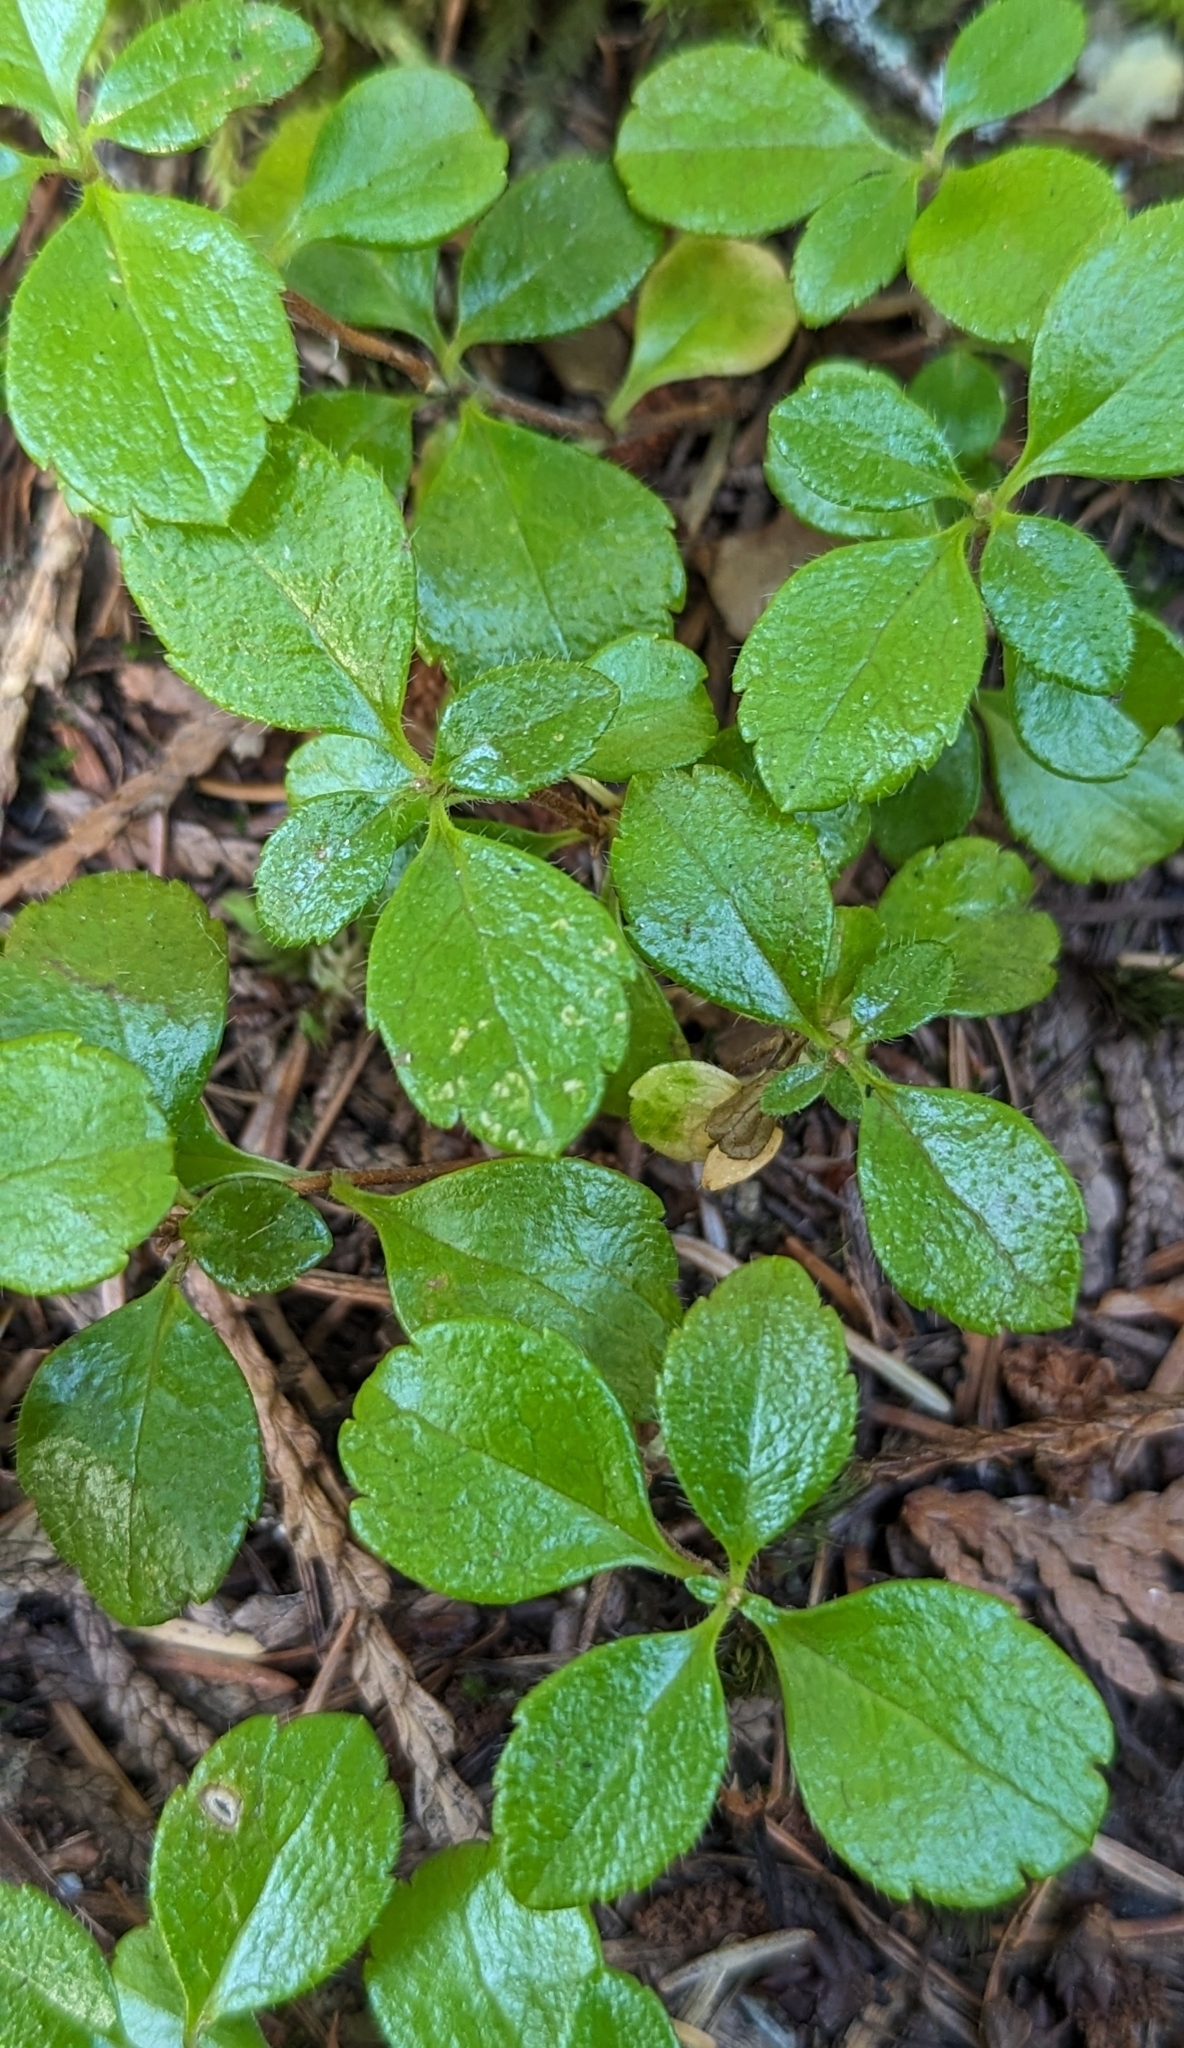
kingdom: Plantae
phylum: Tracheophyta
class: Magnoliopsida
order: Dipsacales
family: Caprifoliaceae
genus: Linnaea
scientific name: Linnaea borealis
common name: Twinflower
